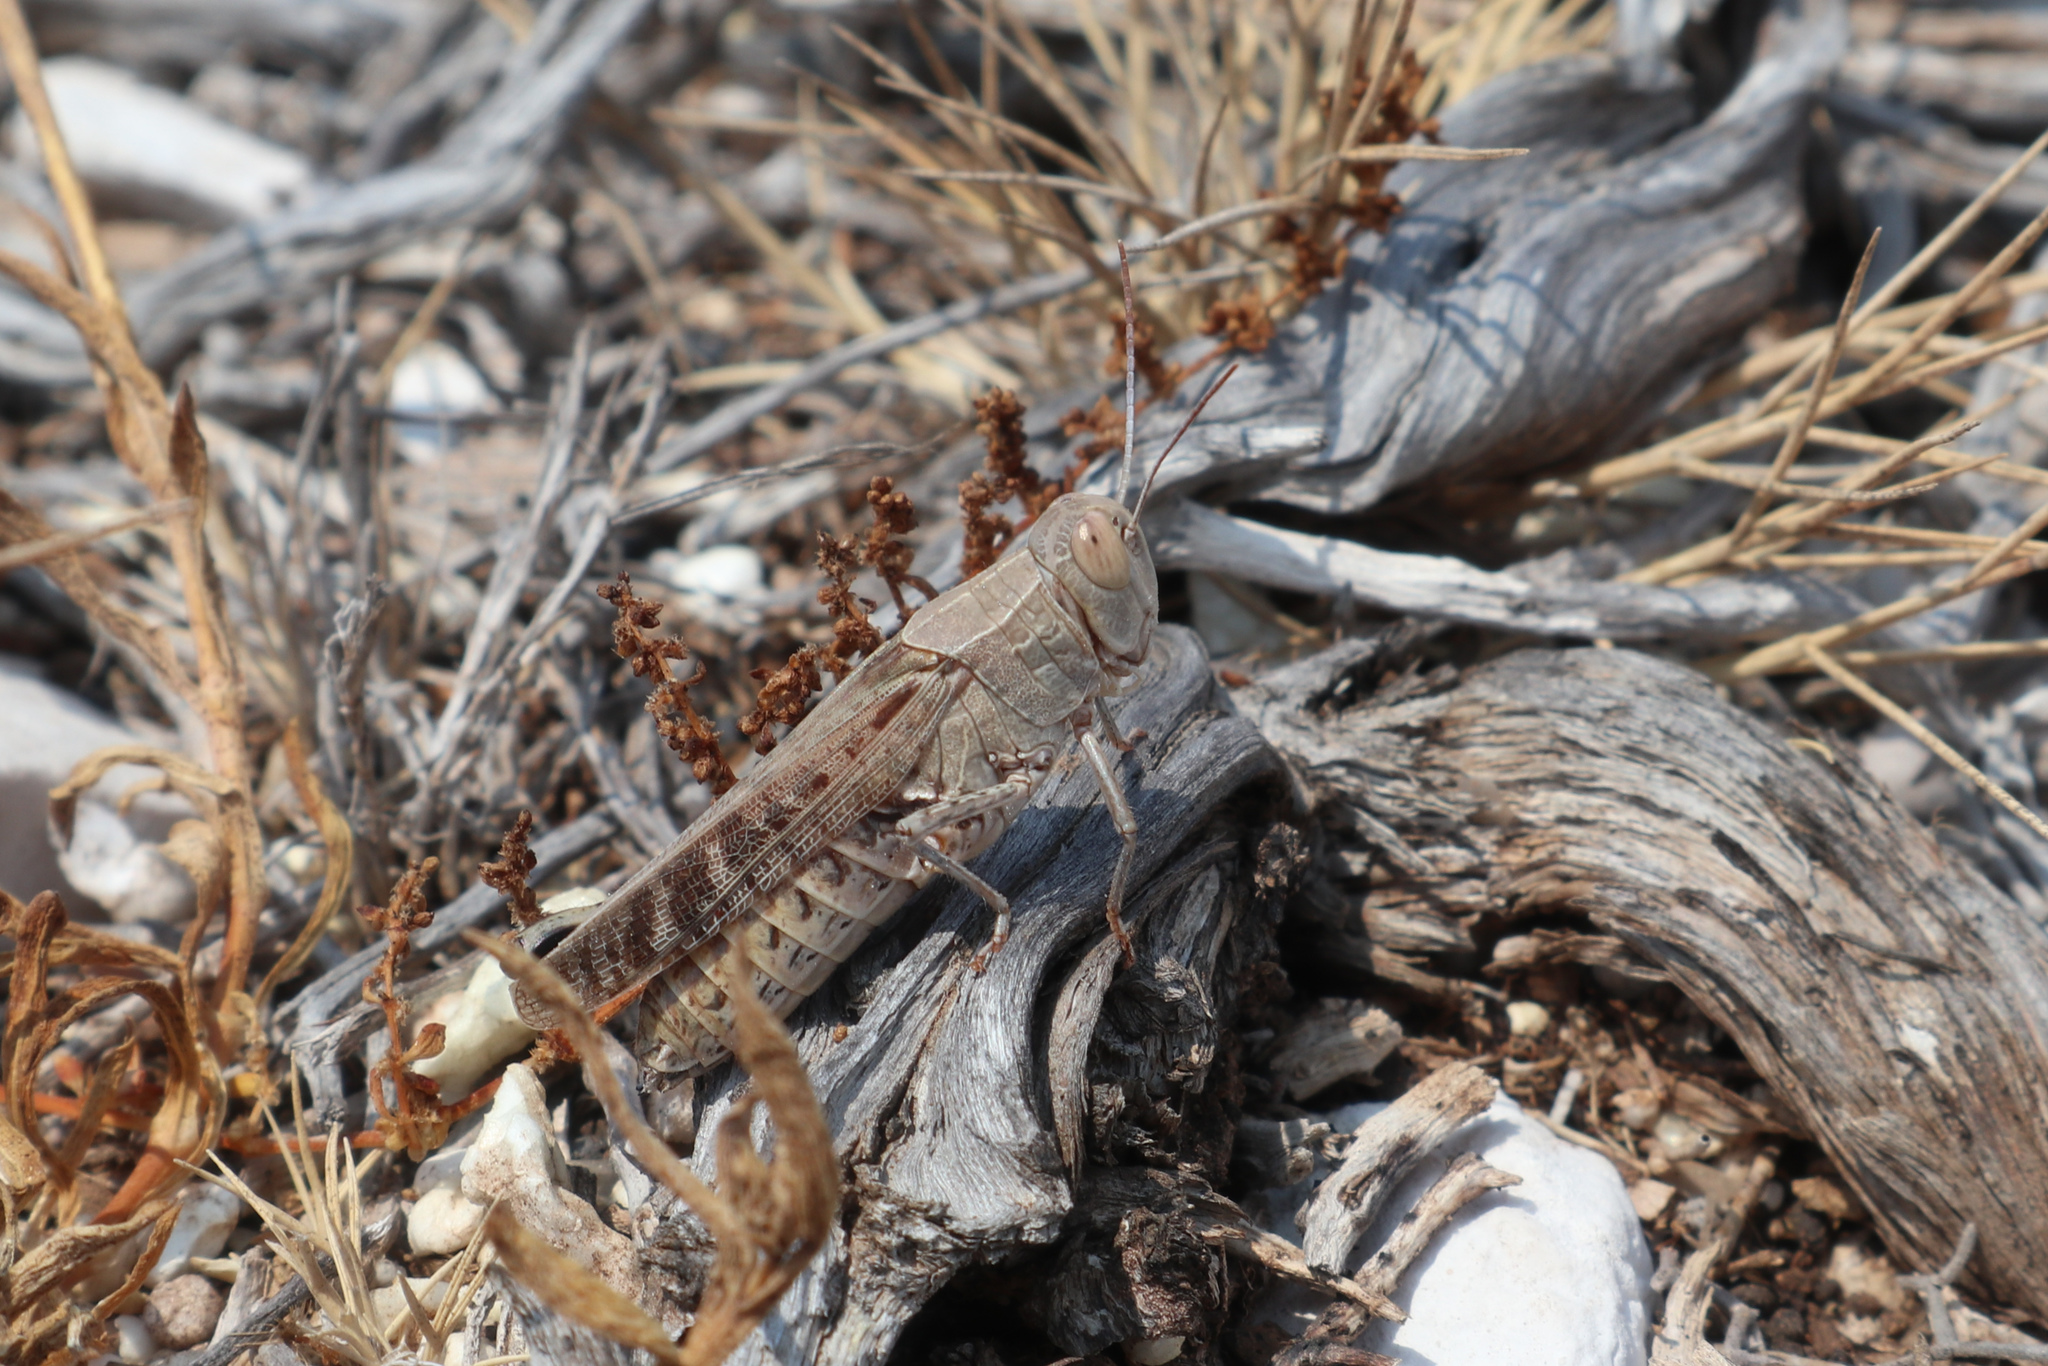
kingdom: Animalia
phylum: Arthropoda
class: Insecta
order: Orthoptera
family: Acrididae
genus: Calliptamus
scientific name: Calliptamus italicus
